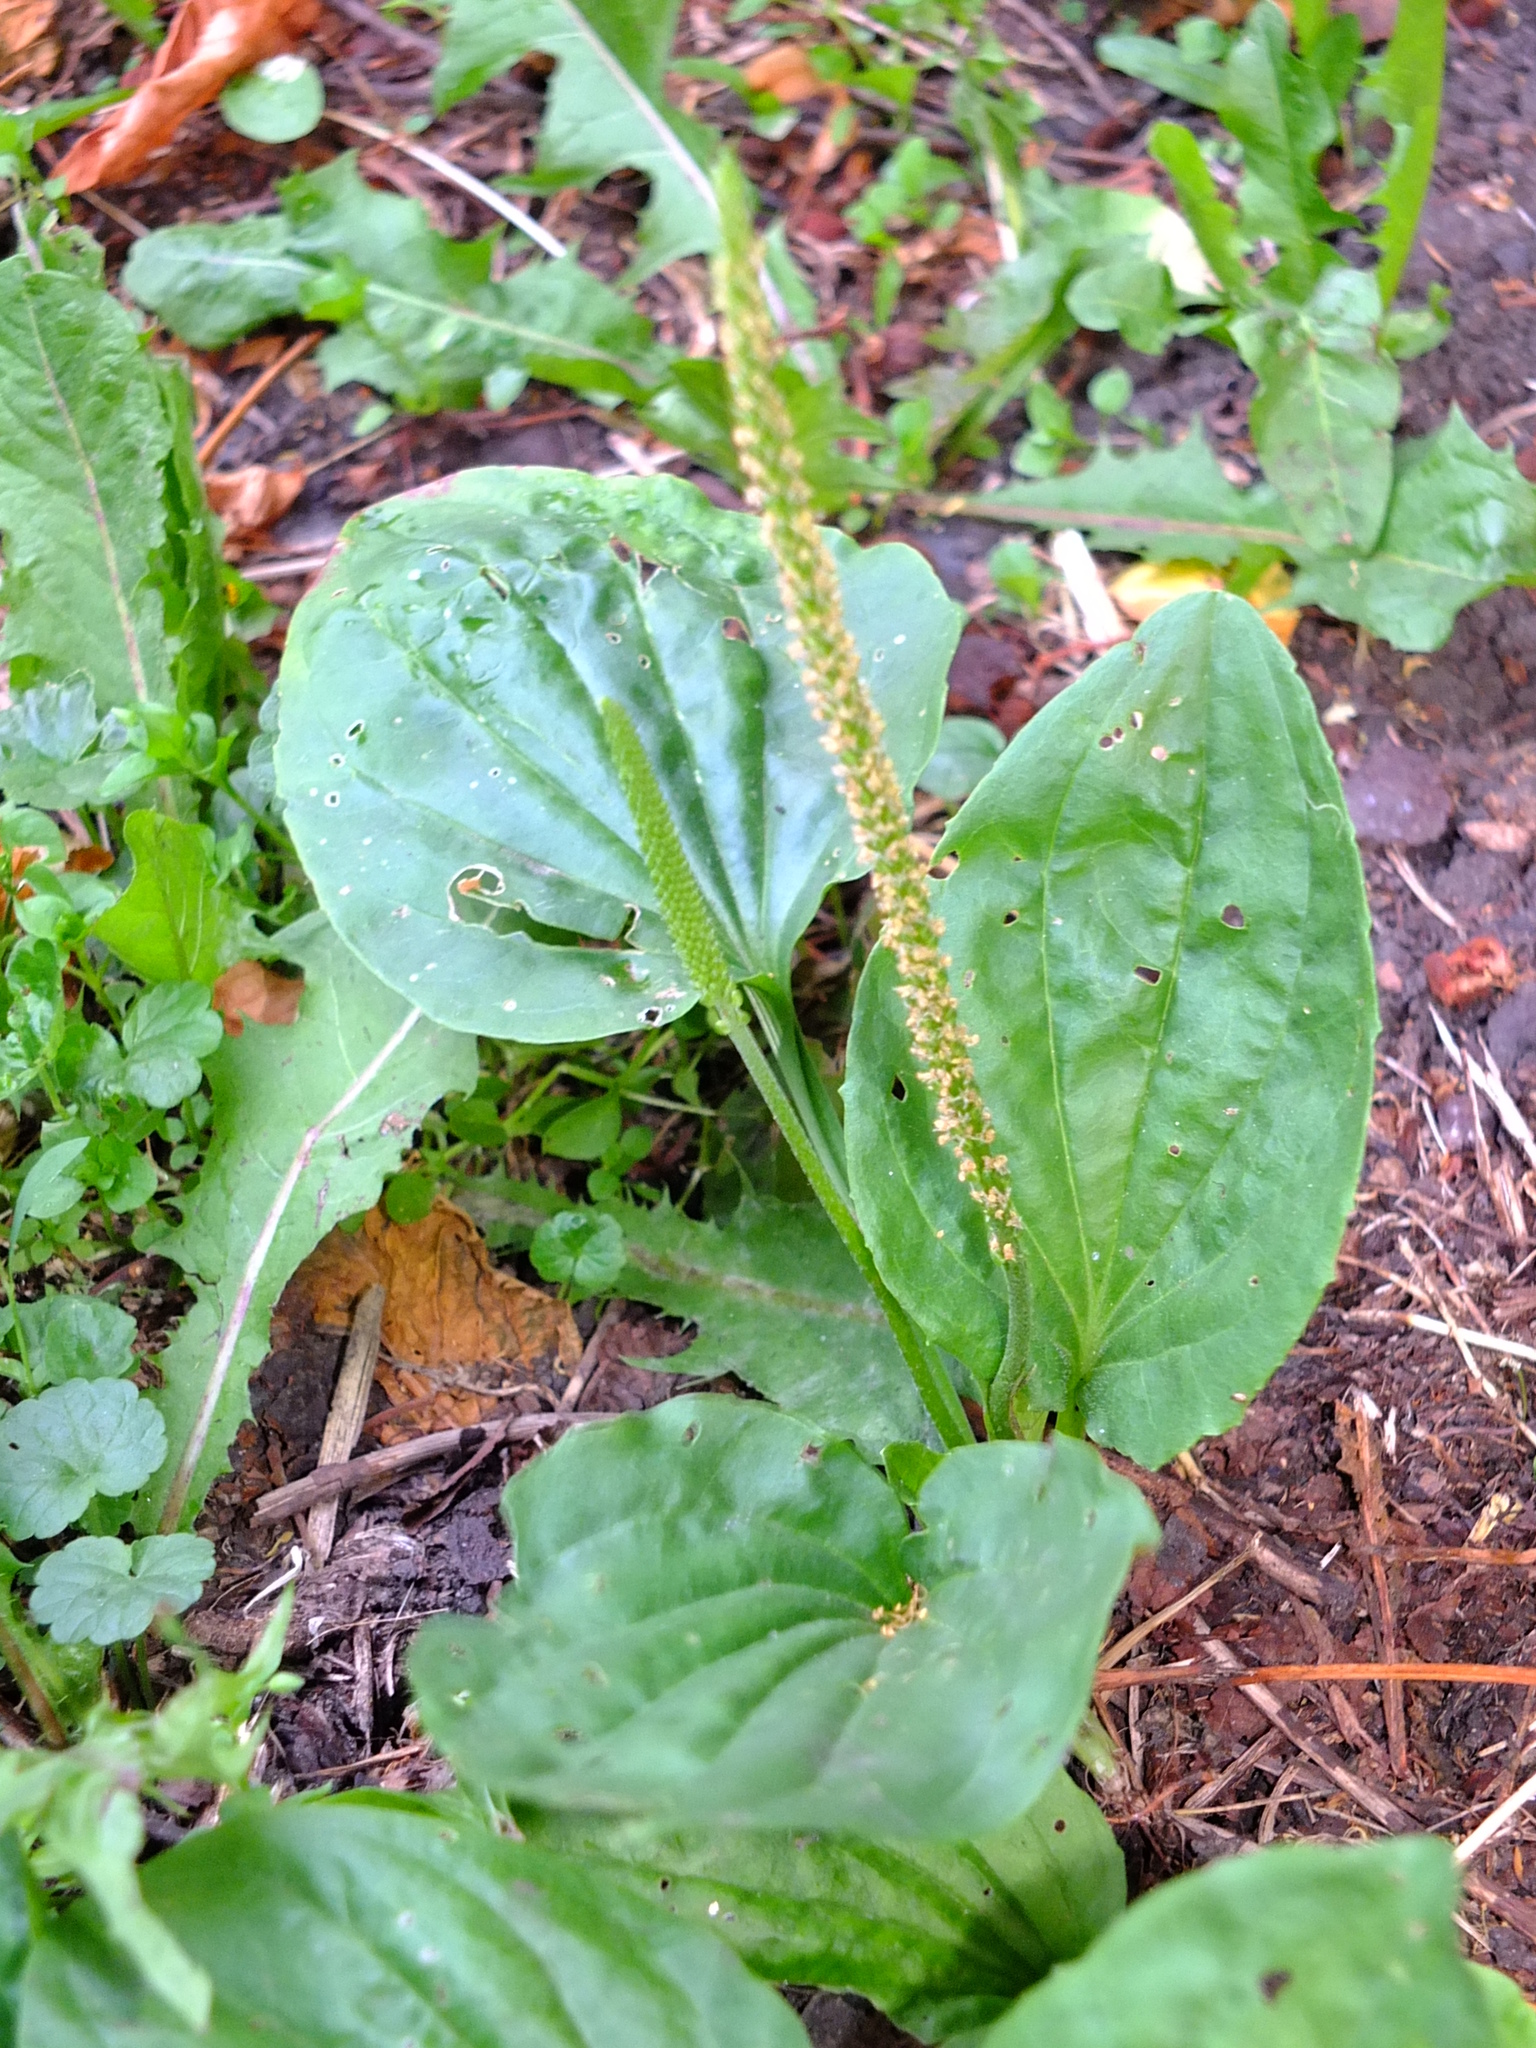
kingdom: Plantae
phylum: Tracheophyta
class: Magnoliopsida
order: Lamiales
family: Plantaginaceae
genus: Plantago
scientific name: Plantago major
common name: Common plantain
